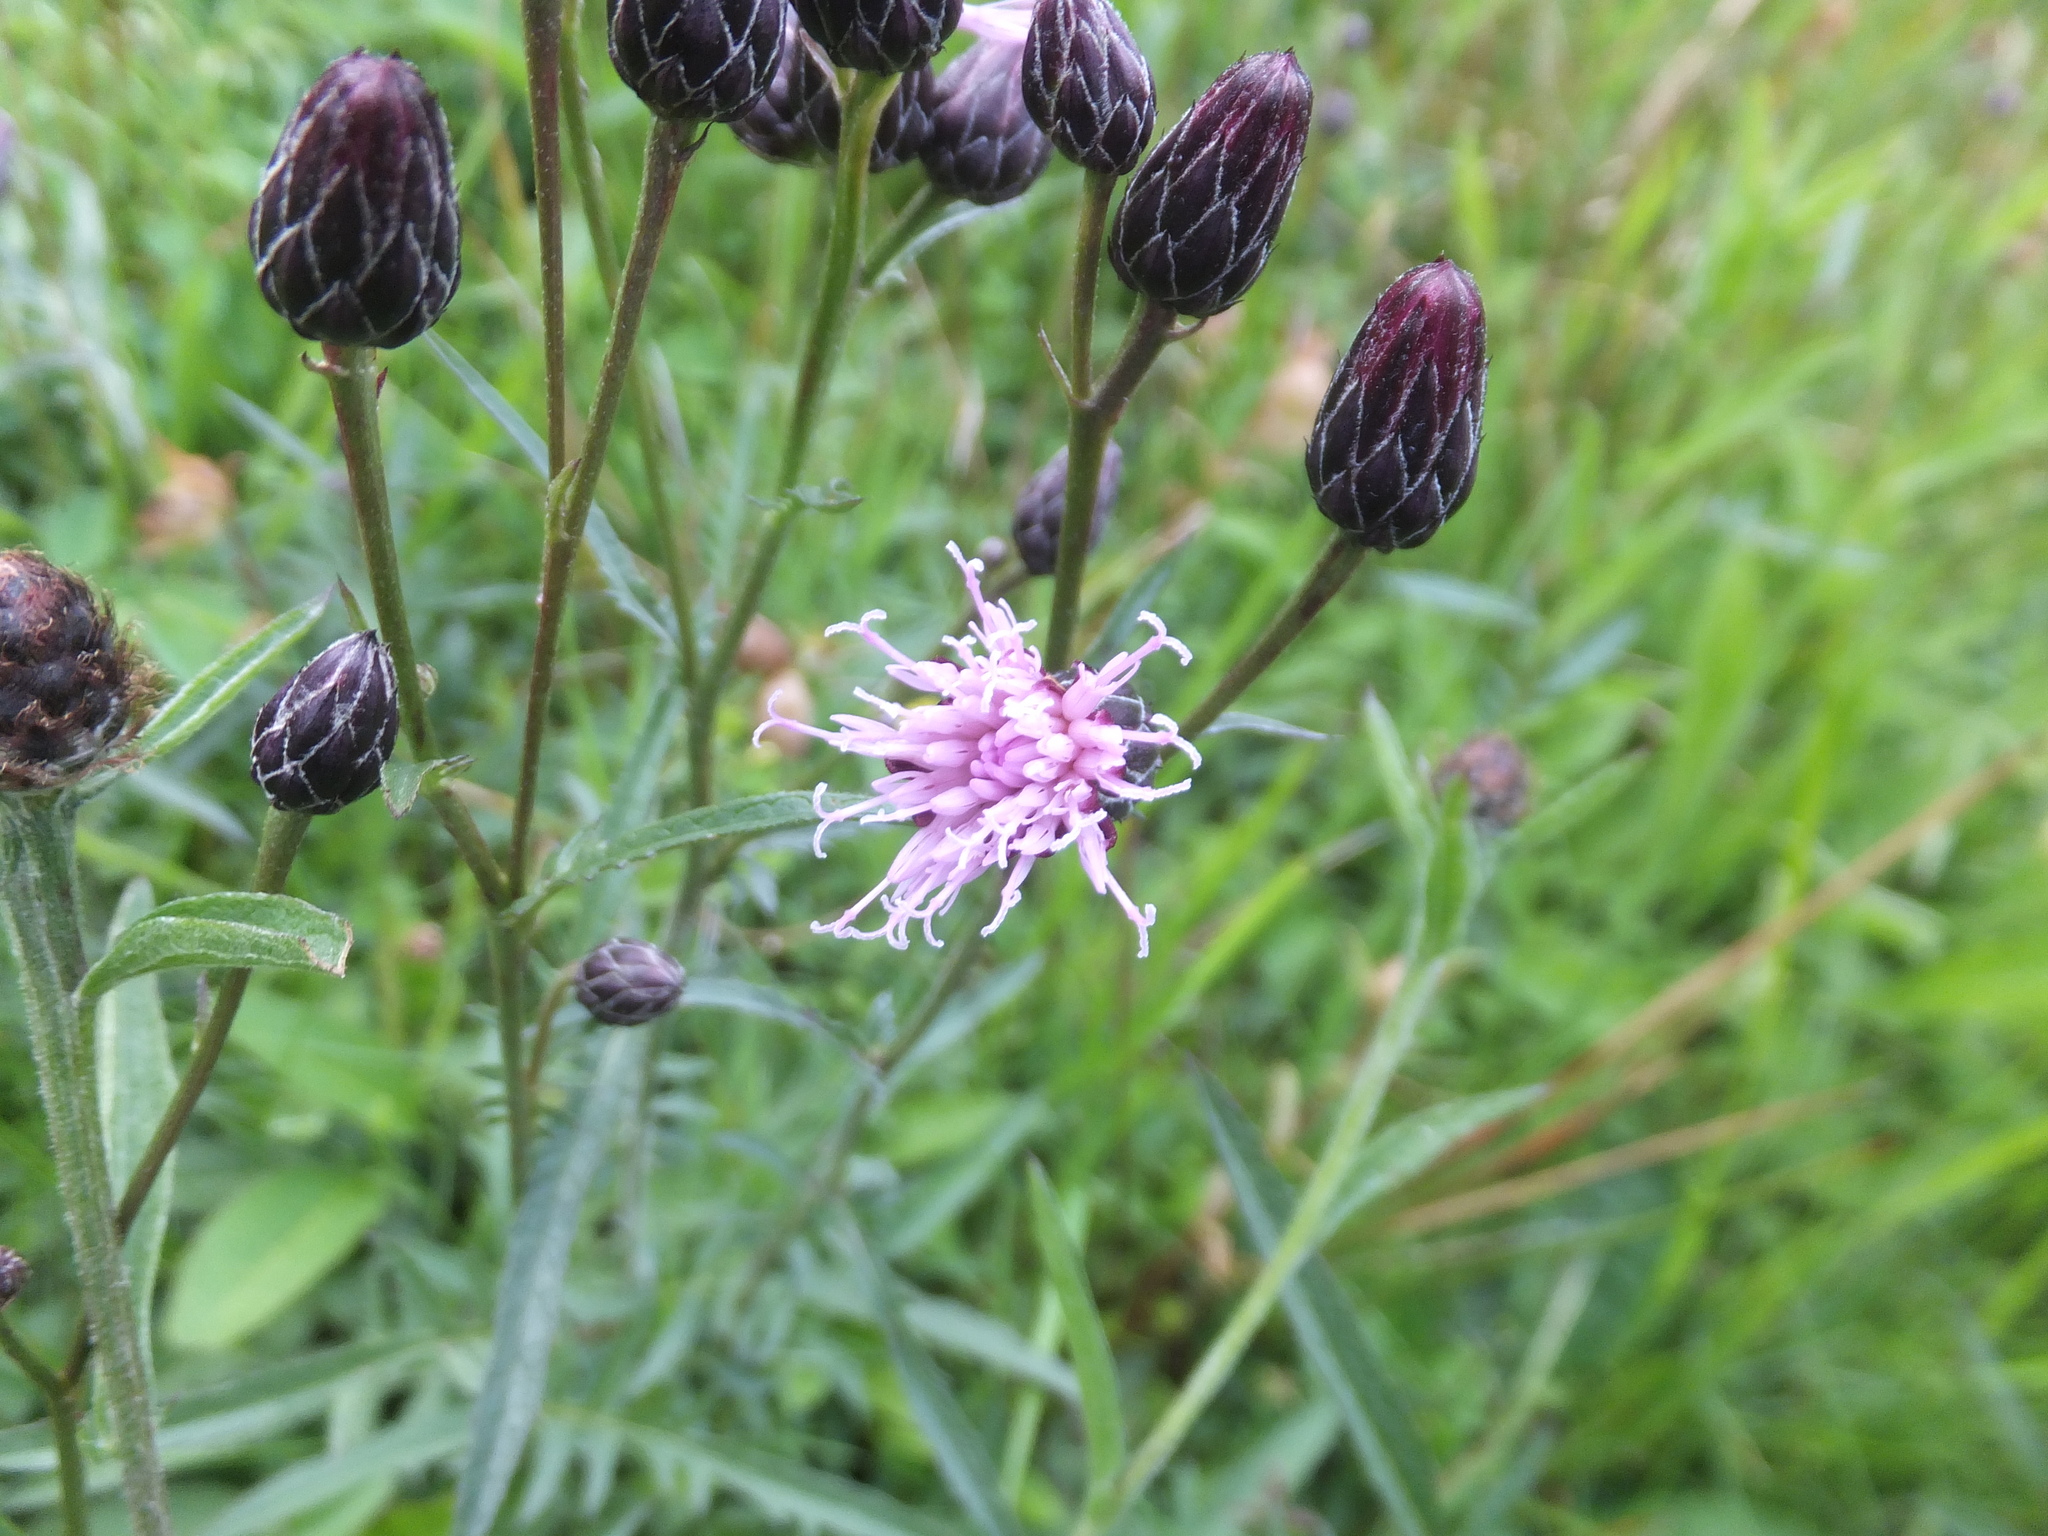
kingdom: Plantae
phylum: Tracheophyta
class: Magnoliopsida
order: Asterales
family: Asteraceae
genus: Serratula
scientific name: Serratula tinctoria
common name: Saw-wort
